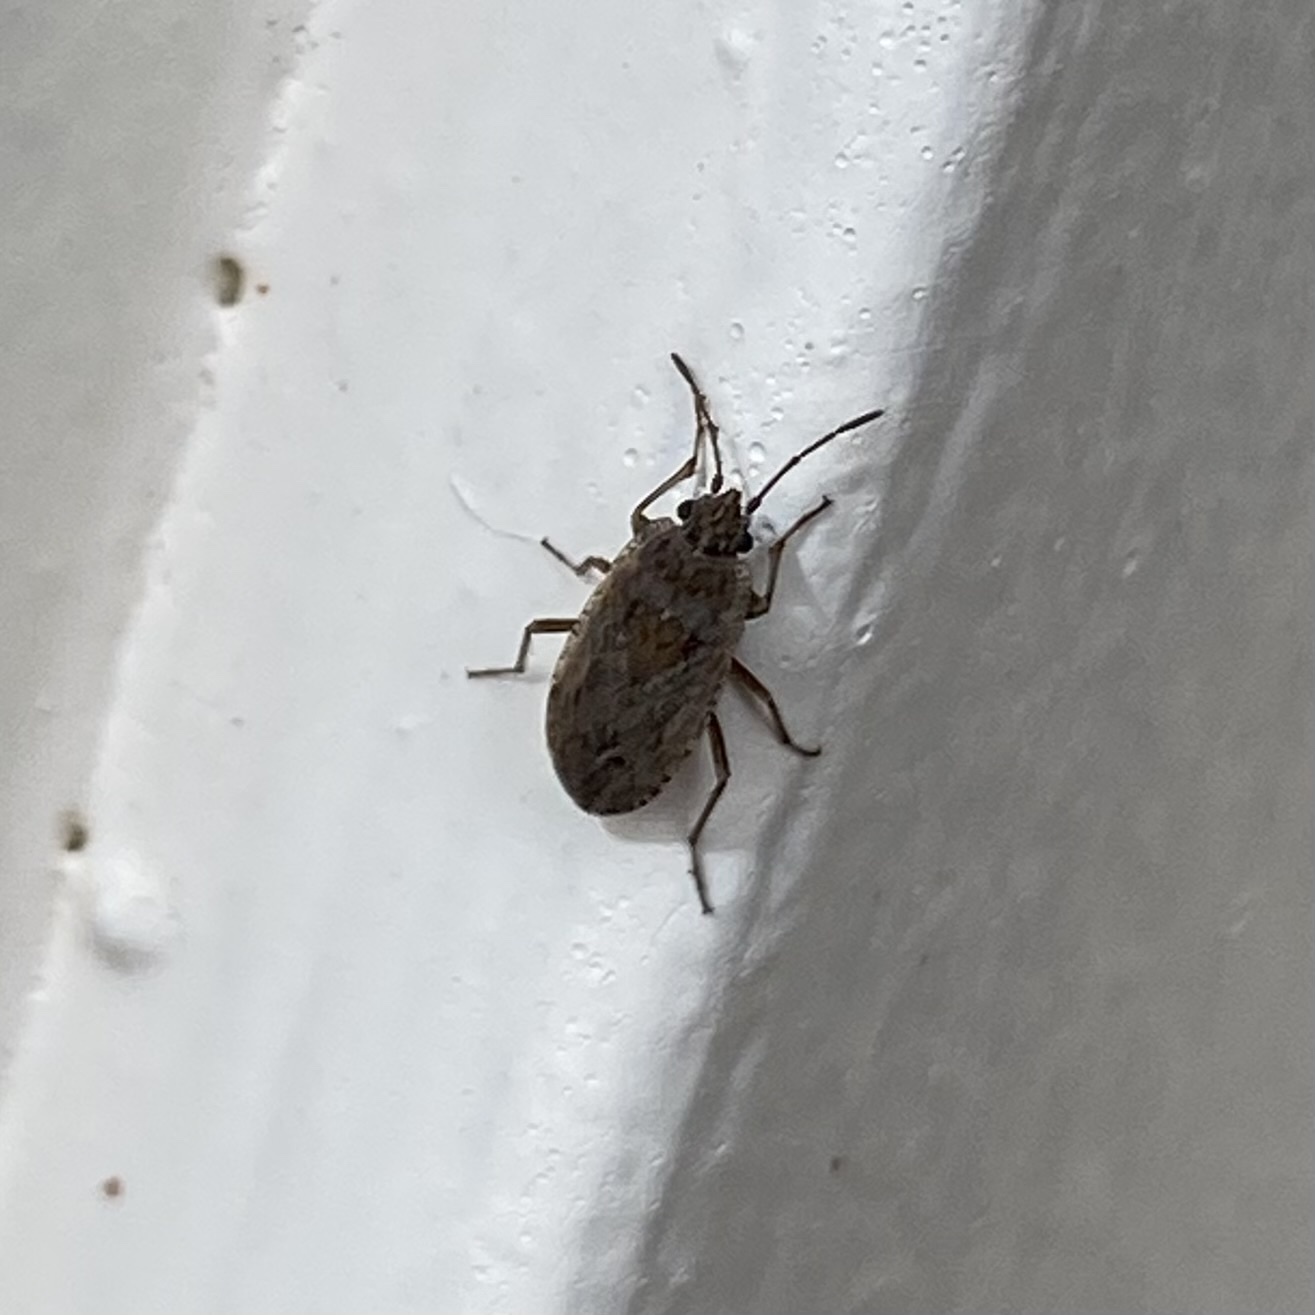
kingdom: Animalia
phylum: Arthropoda
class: Insecta
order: Hemiptera
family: Rhyparochromidae
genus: Emblethis
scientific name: Emblethis vicarius
